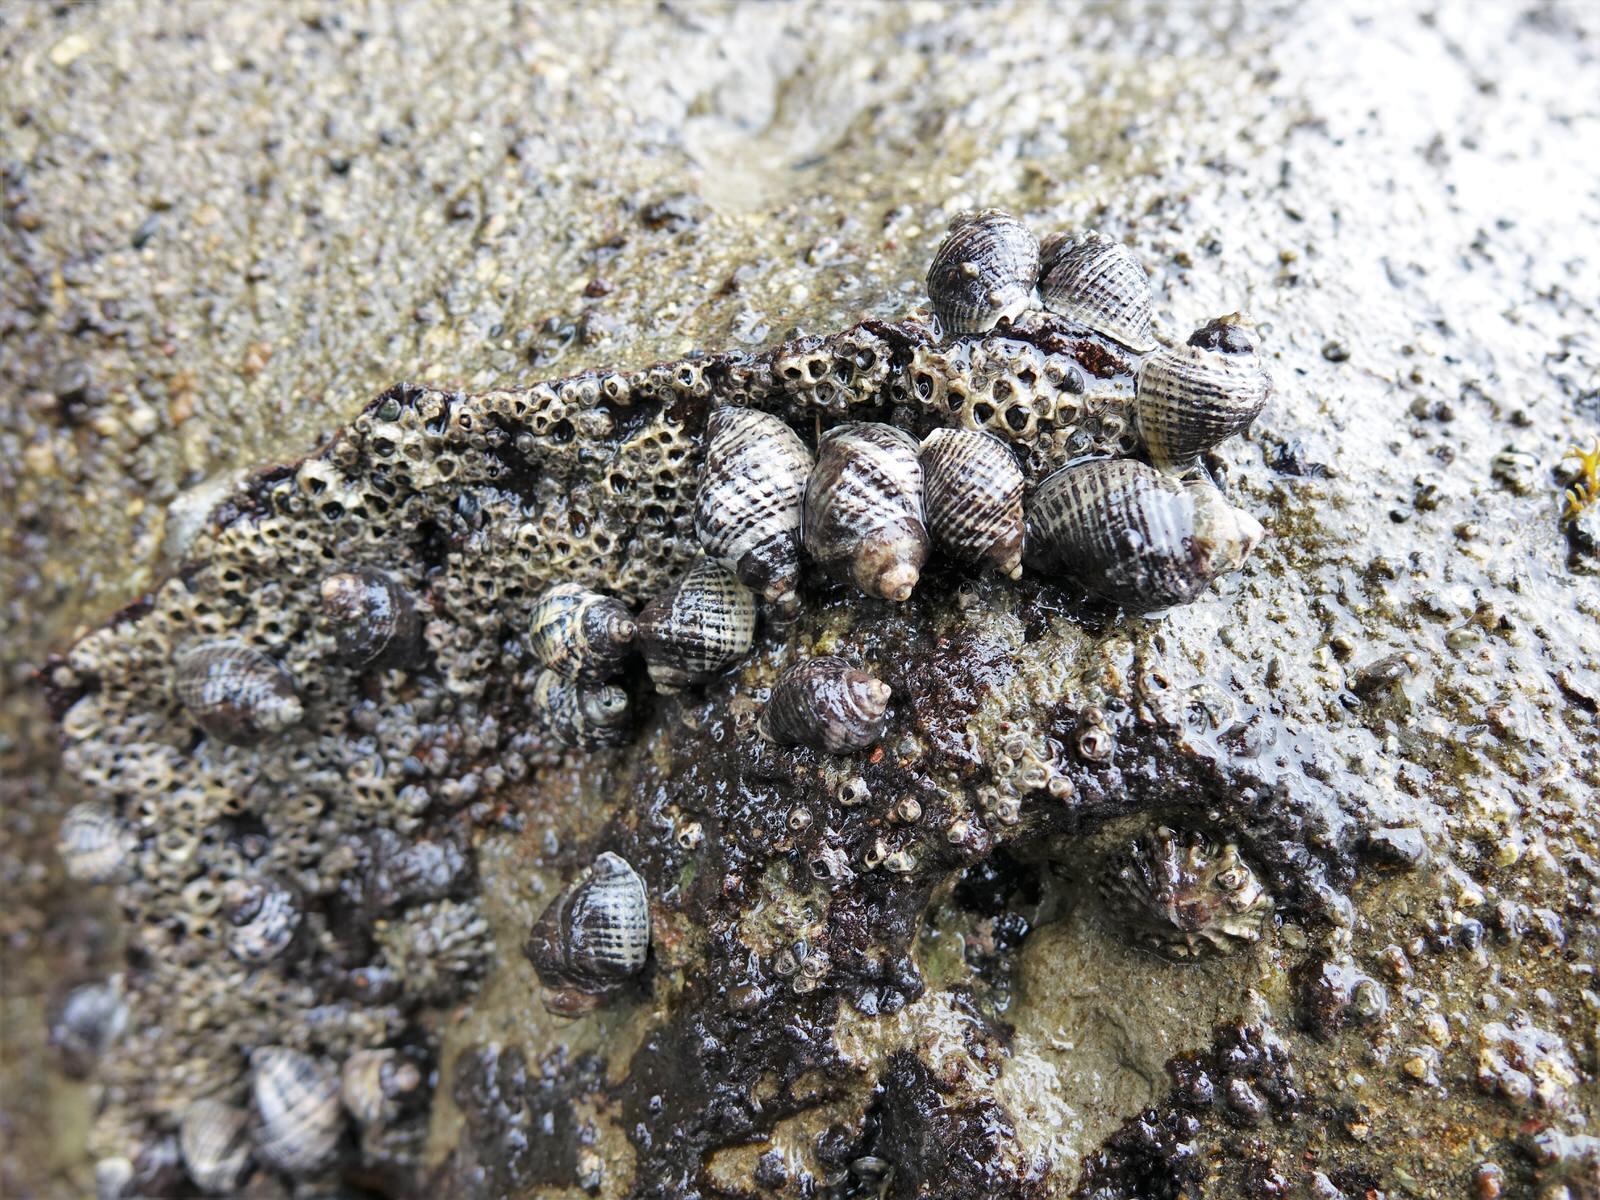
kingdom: Animalia
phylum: Mollusca
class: Gastropoda
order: Neogastropoda
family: Muricidae
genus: Haustrum
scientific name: Haustrum albomarginatum
